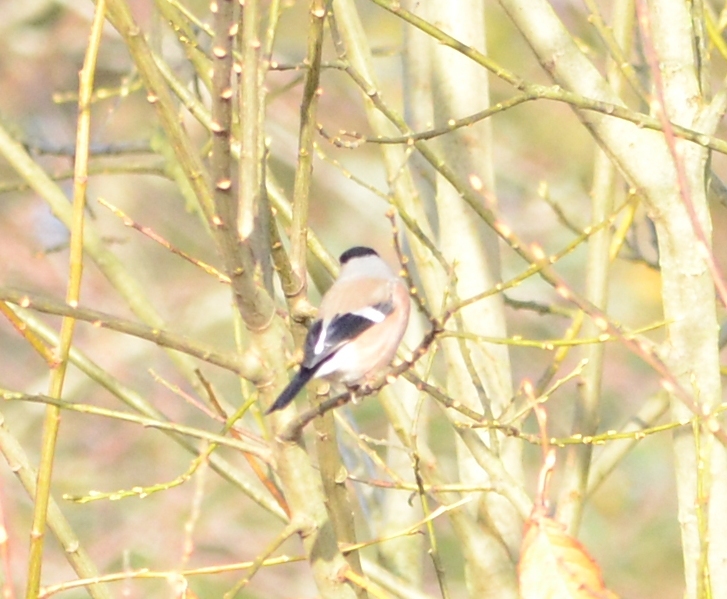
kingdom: Animalia
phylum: Chordata
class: Aves
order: Passeriformes
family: Fringillidae
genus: Pyrrhula
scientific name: Pyrrhula pyrrhula
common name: Eurasian bullfinch
